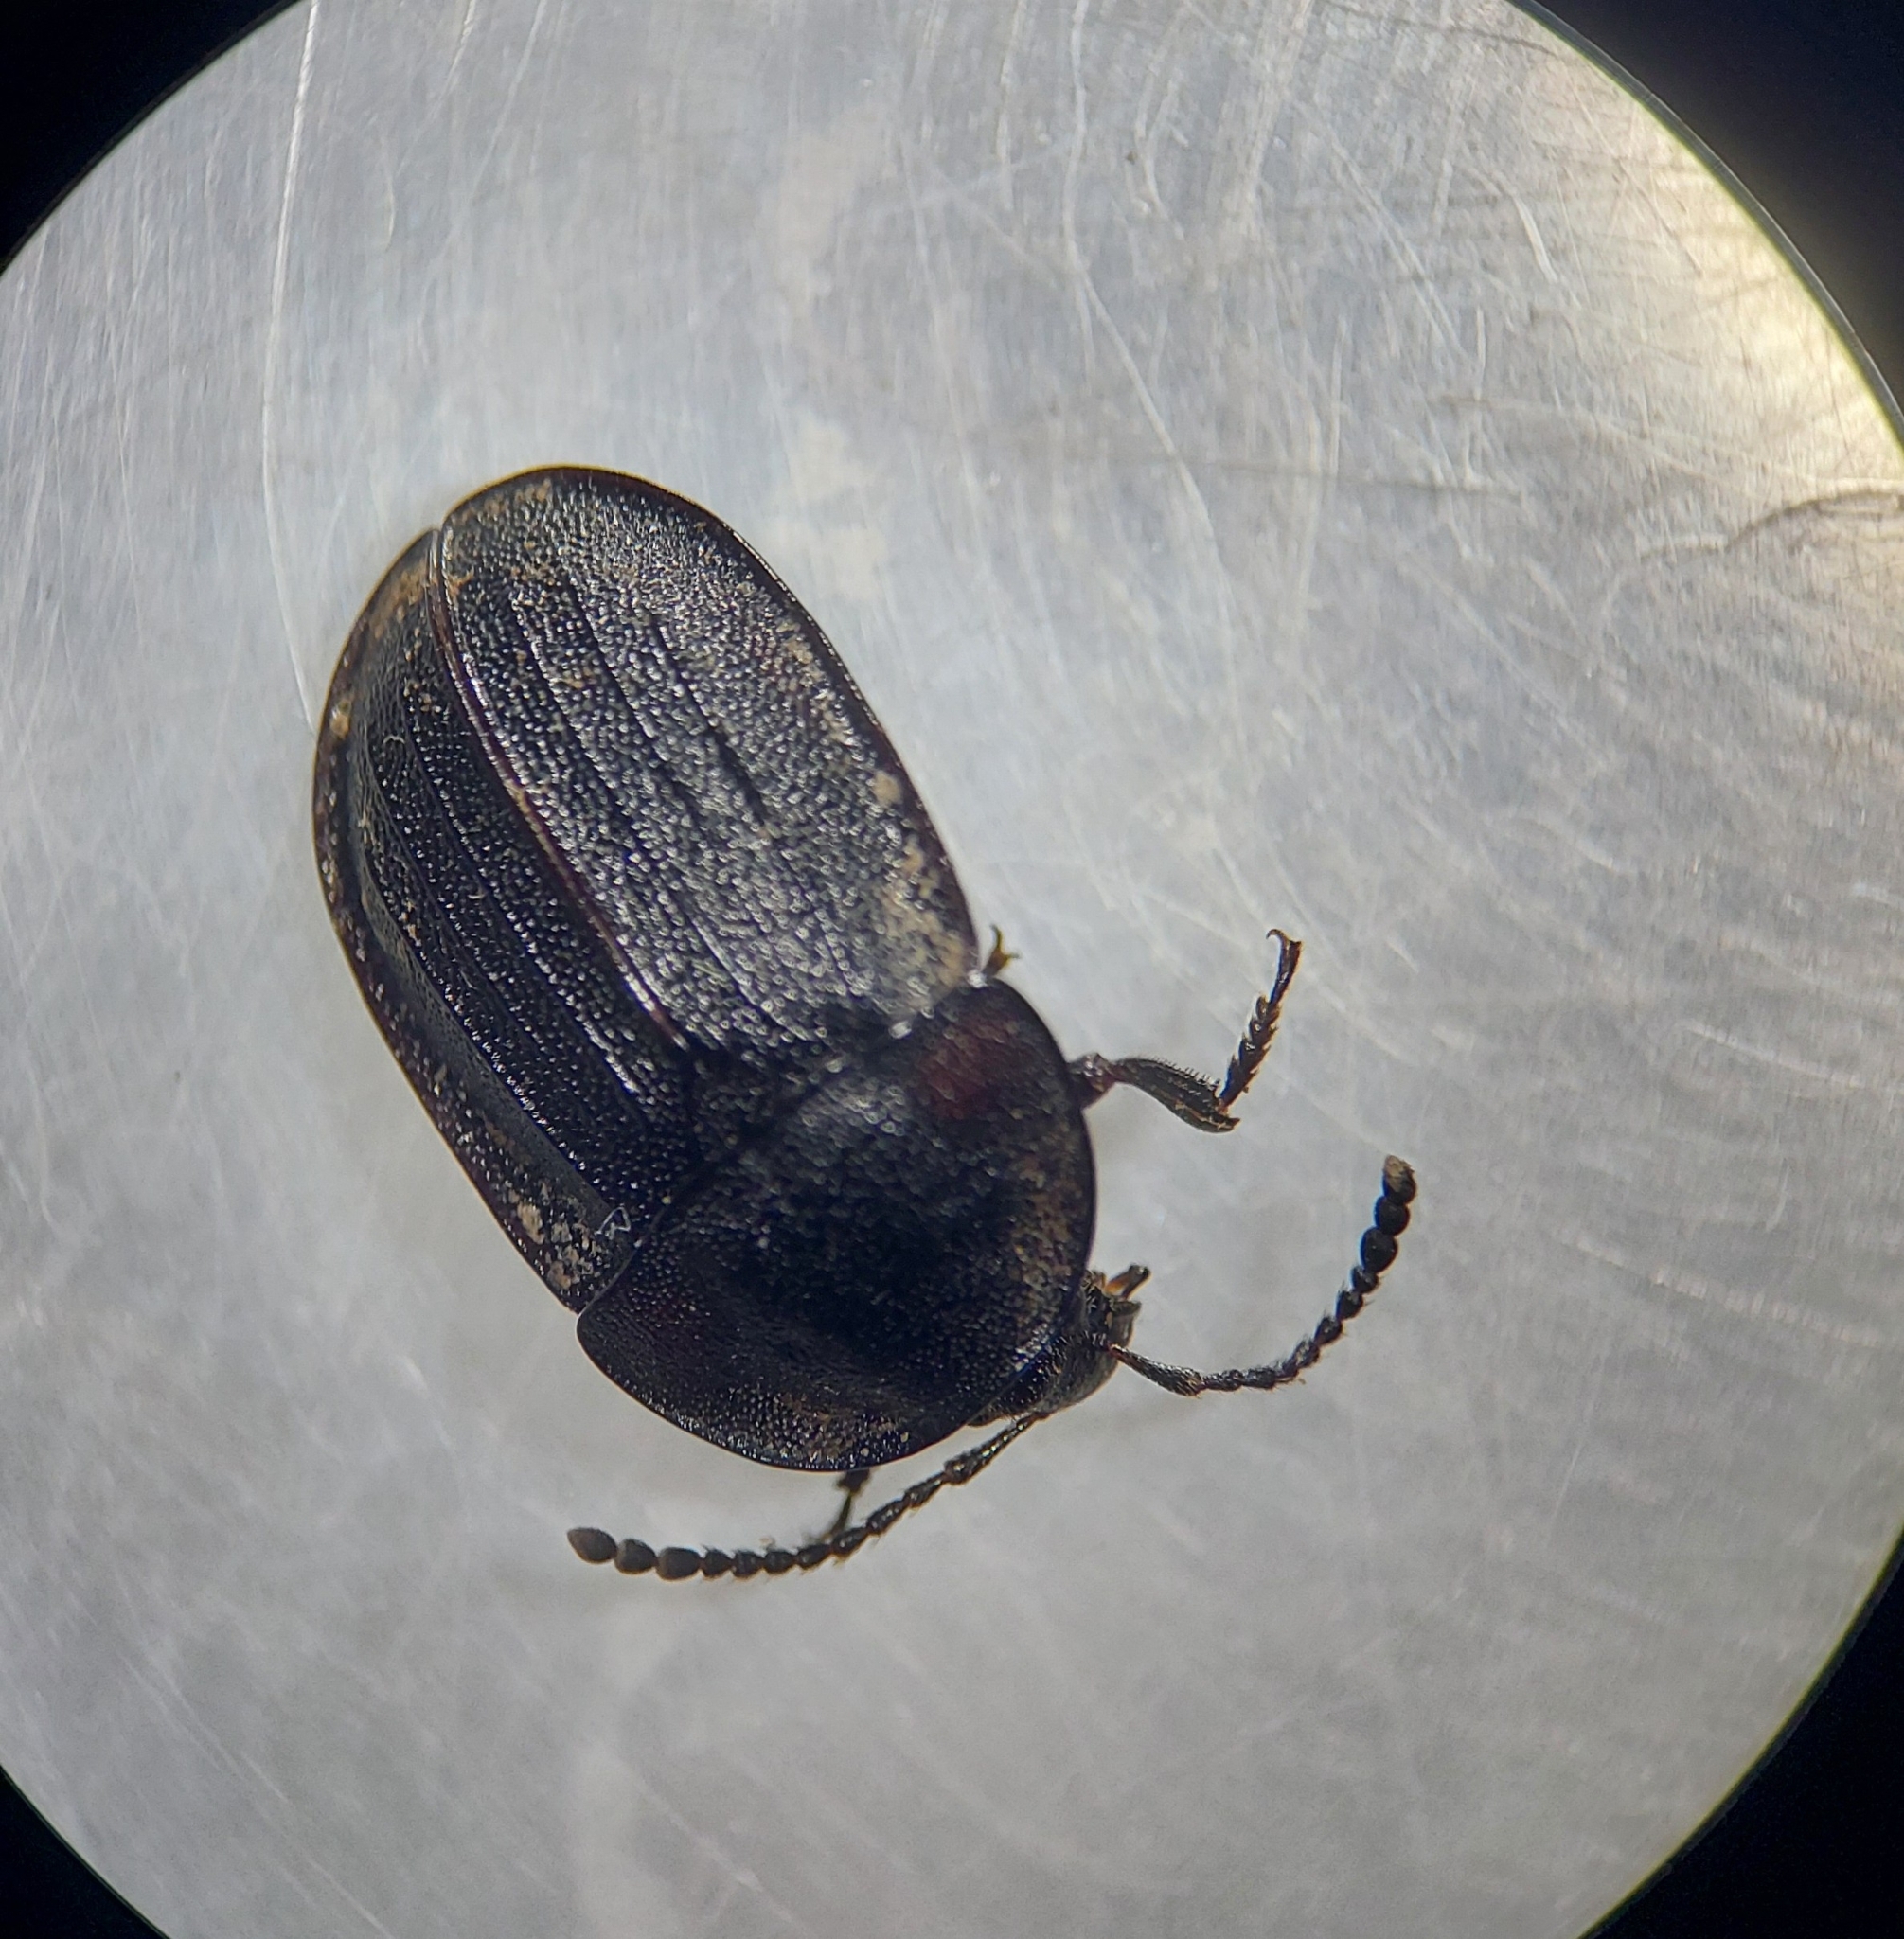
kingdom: Animalia
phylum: Arthropoda
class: Insecta
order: Coleoptera
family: Staphylinidae
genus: Silpha
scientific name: Silpha atrata
